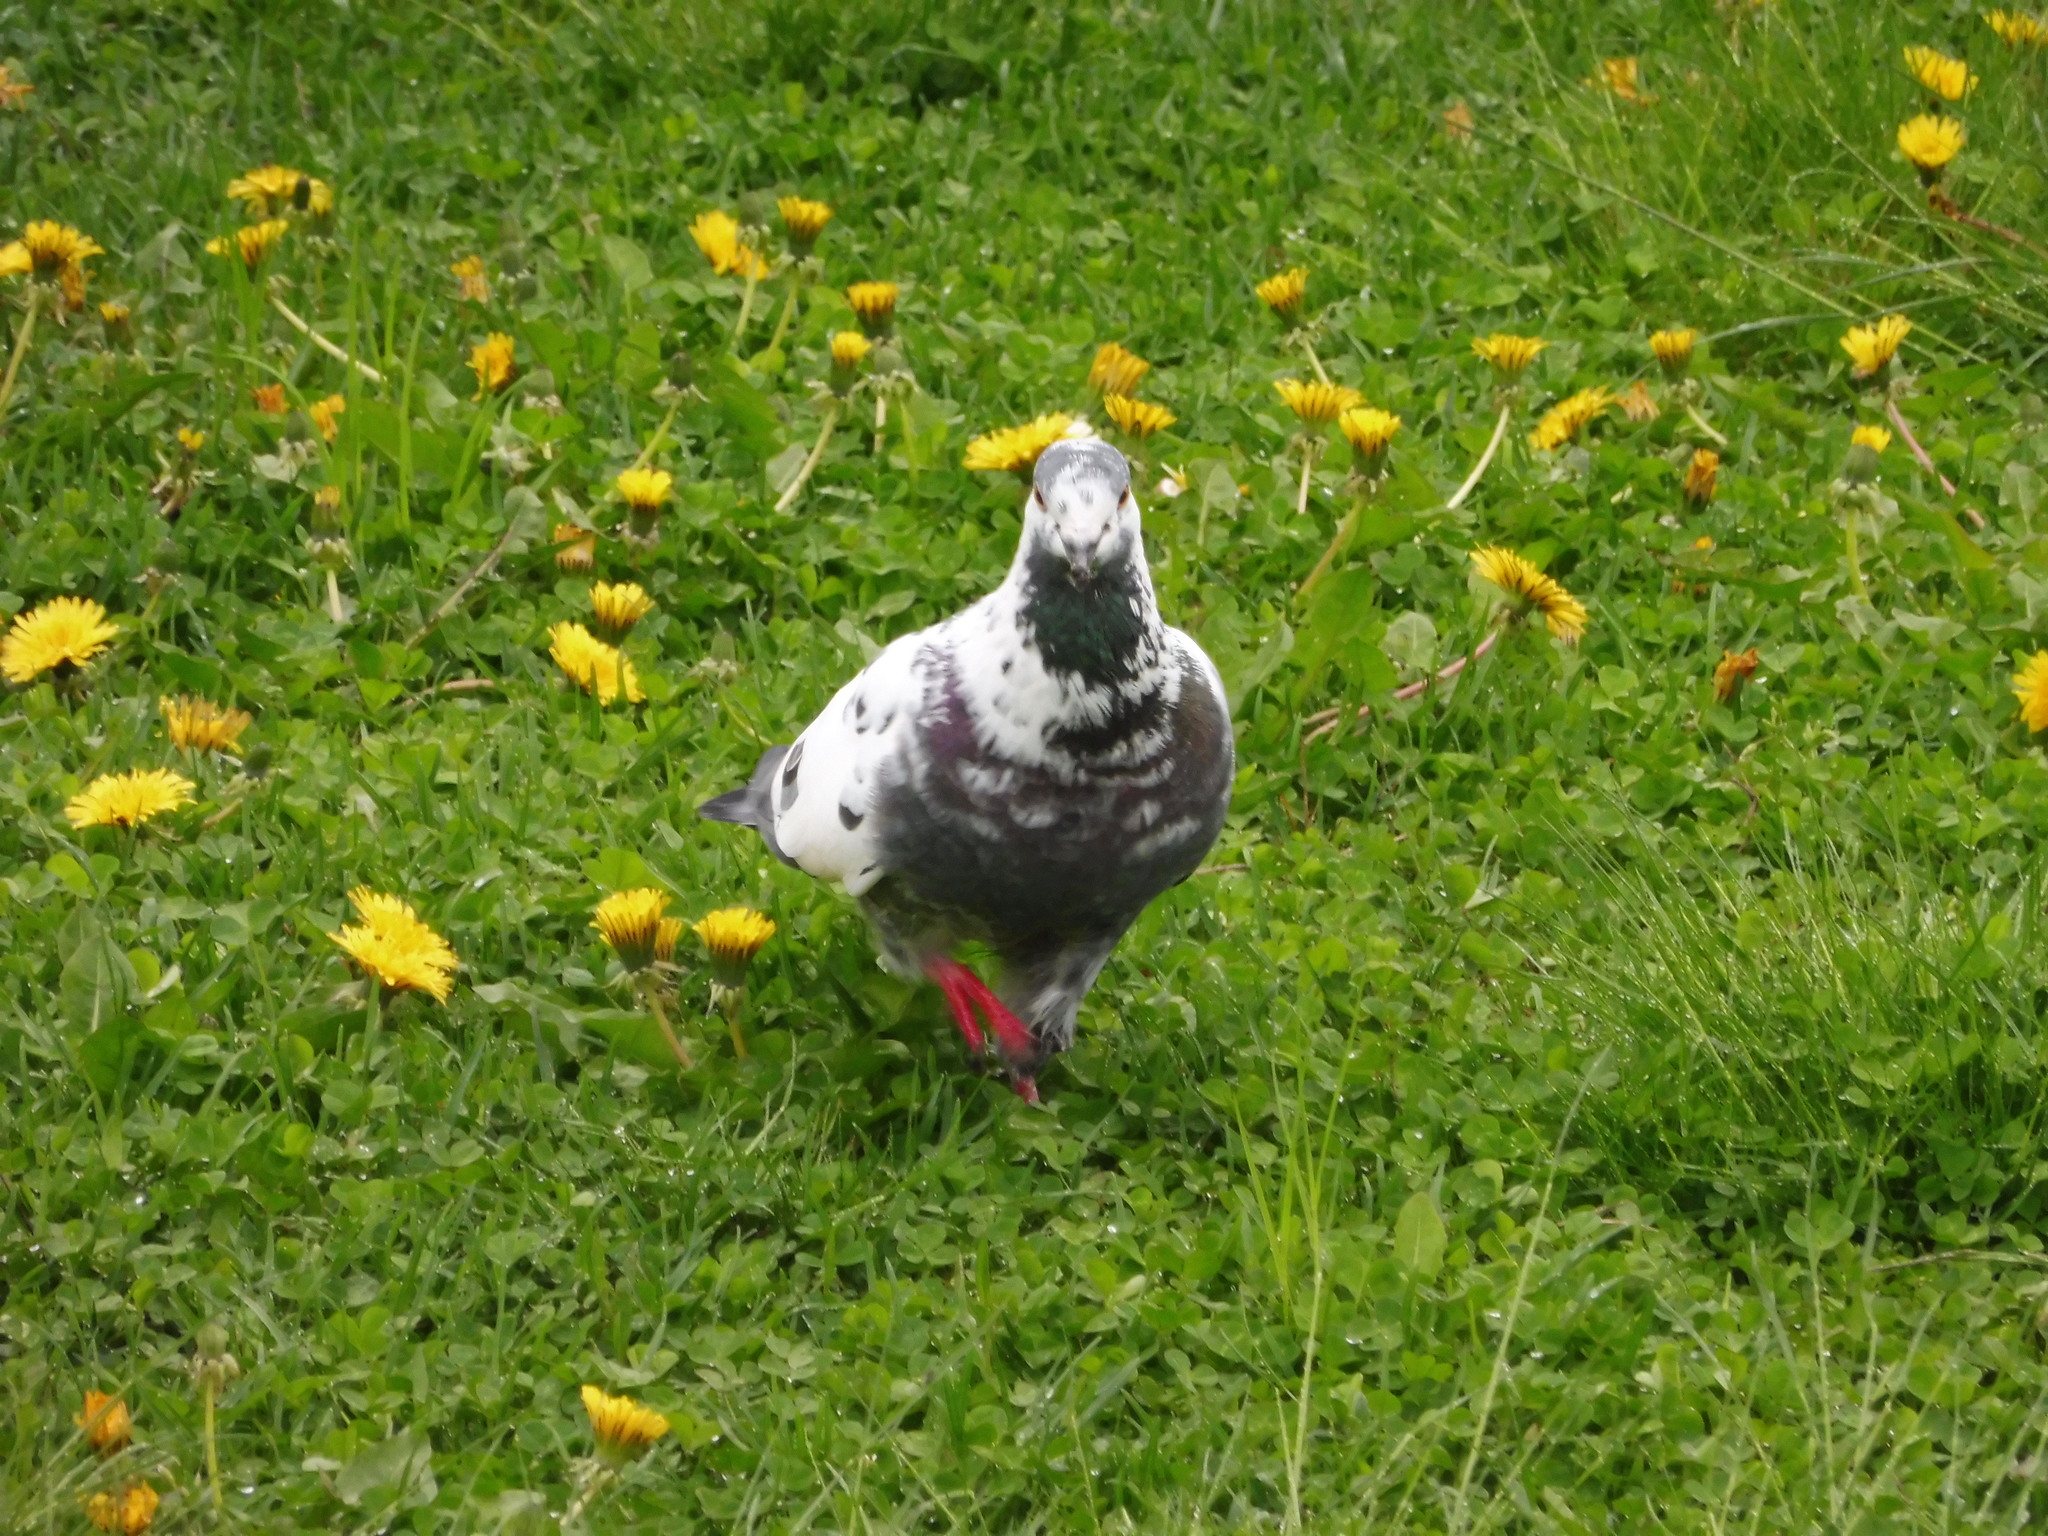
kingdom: Animalia
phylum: Chordata
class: Aves
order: Columbiformes
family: Columbidae
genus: Columba
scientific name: Columba livia
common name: Rock pigeon
